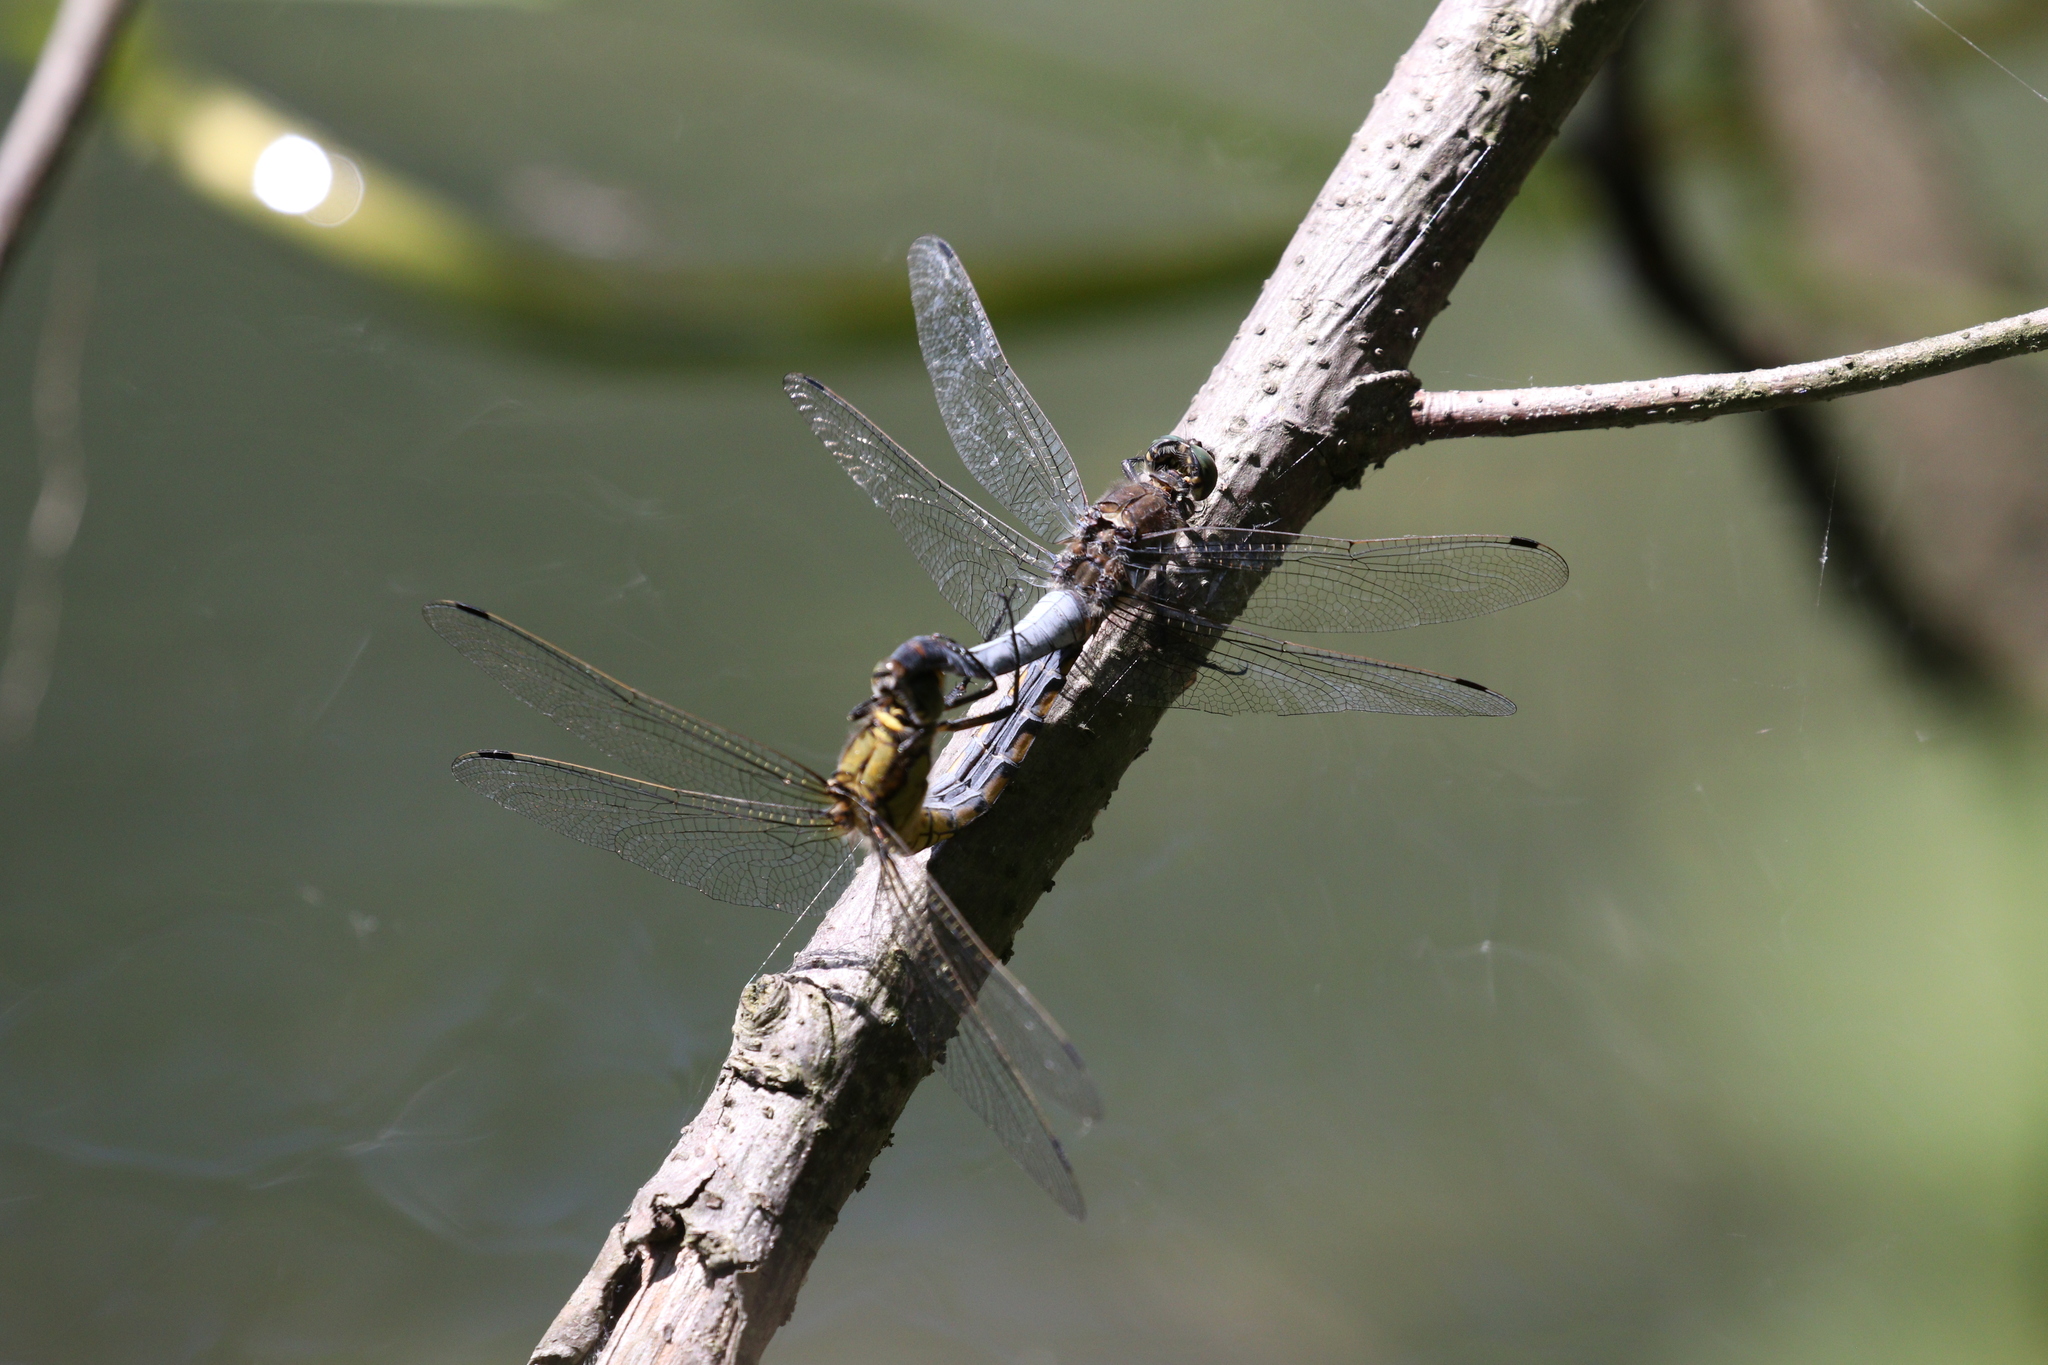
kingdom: Animalia
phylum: Arthropoda
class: Insecta
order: Odonata
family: Libellulidae
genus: Orthetrum
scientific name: Orthetrum cancellatum
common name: Black-tailed skimmer
